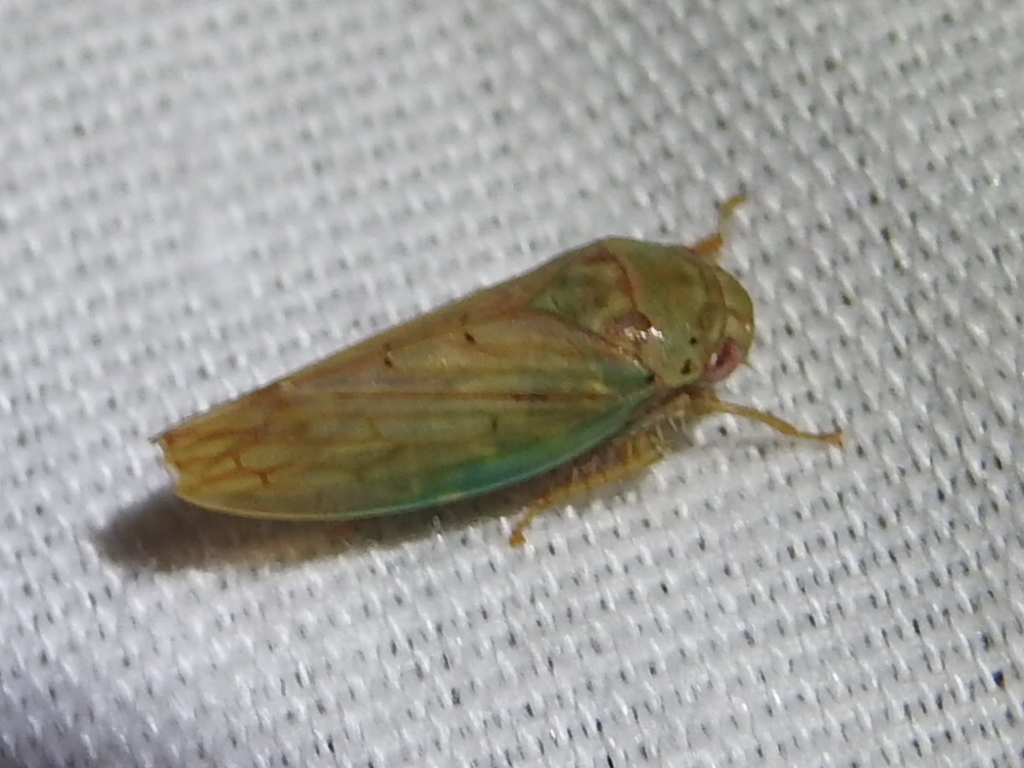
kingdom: Animalia
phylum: Arthropoda
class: Insecta
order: Hemiptera
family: Cicadellidae
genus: Polana
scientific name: Polana quadrinotata
